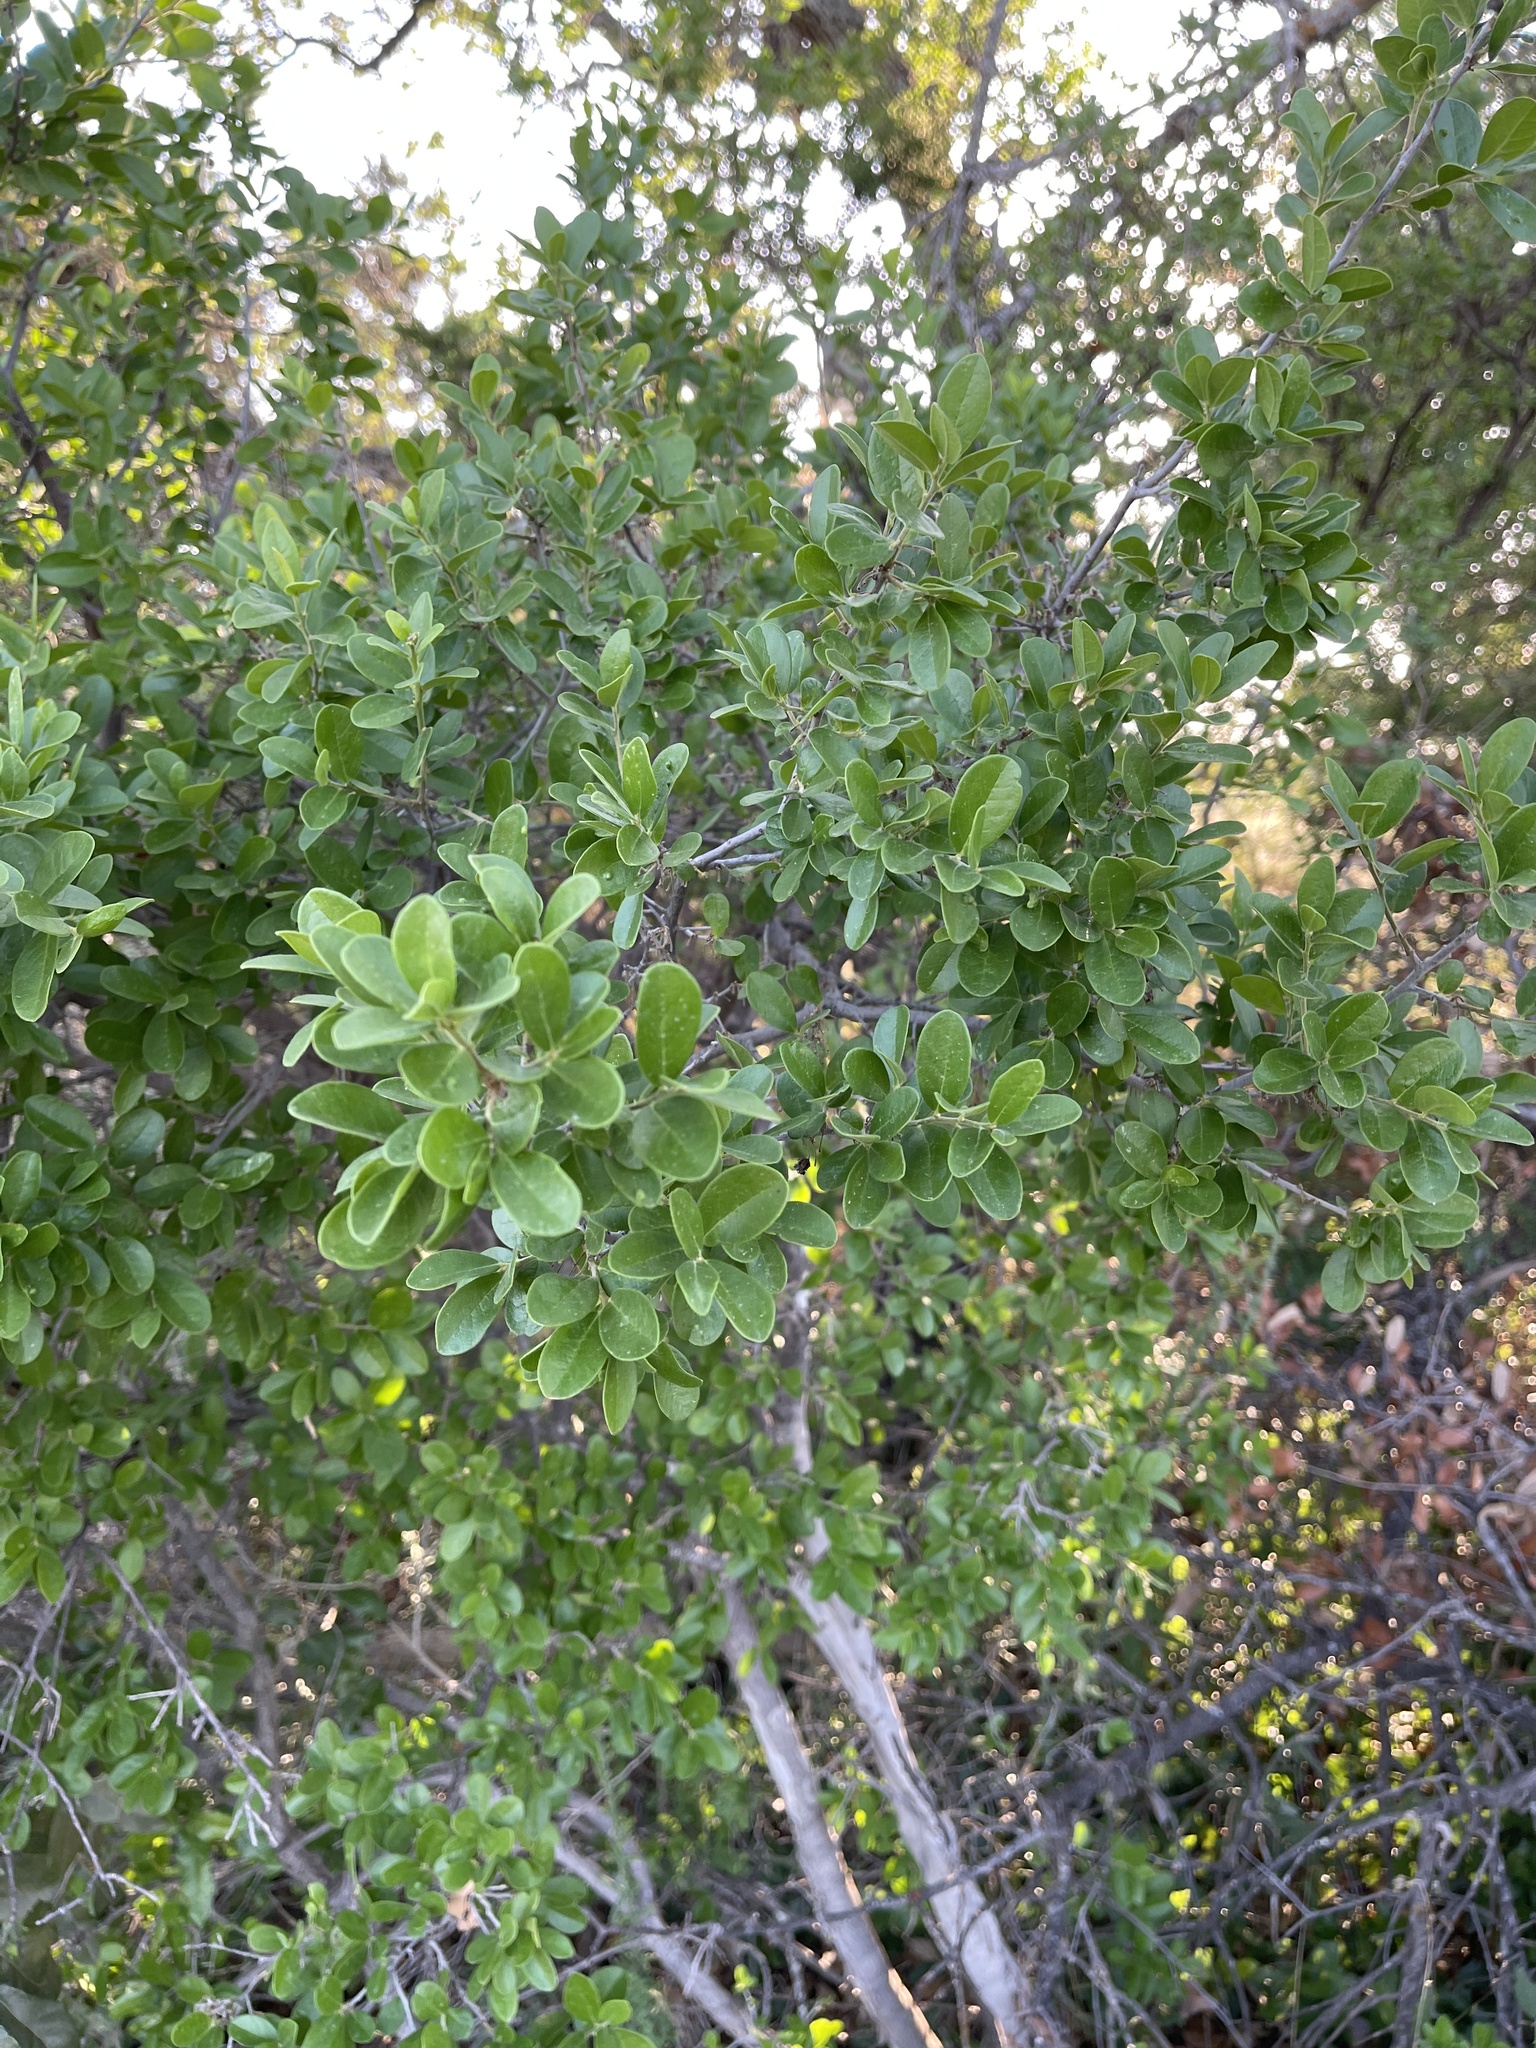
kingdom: Plantae
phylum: Tracheophyta
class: Magnoliopsida
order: Ericales
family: Ebenaceae
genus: Diospyros
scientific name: Diospyros texana
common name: Texas persimmon
